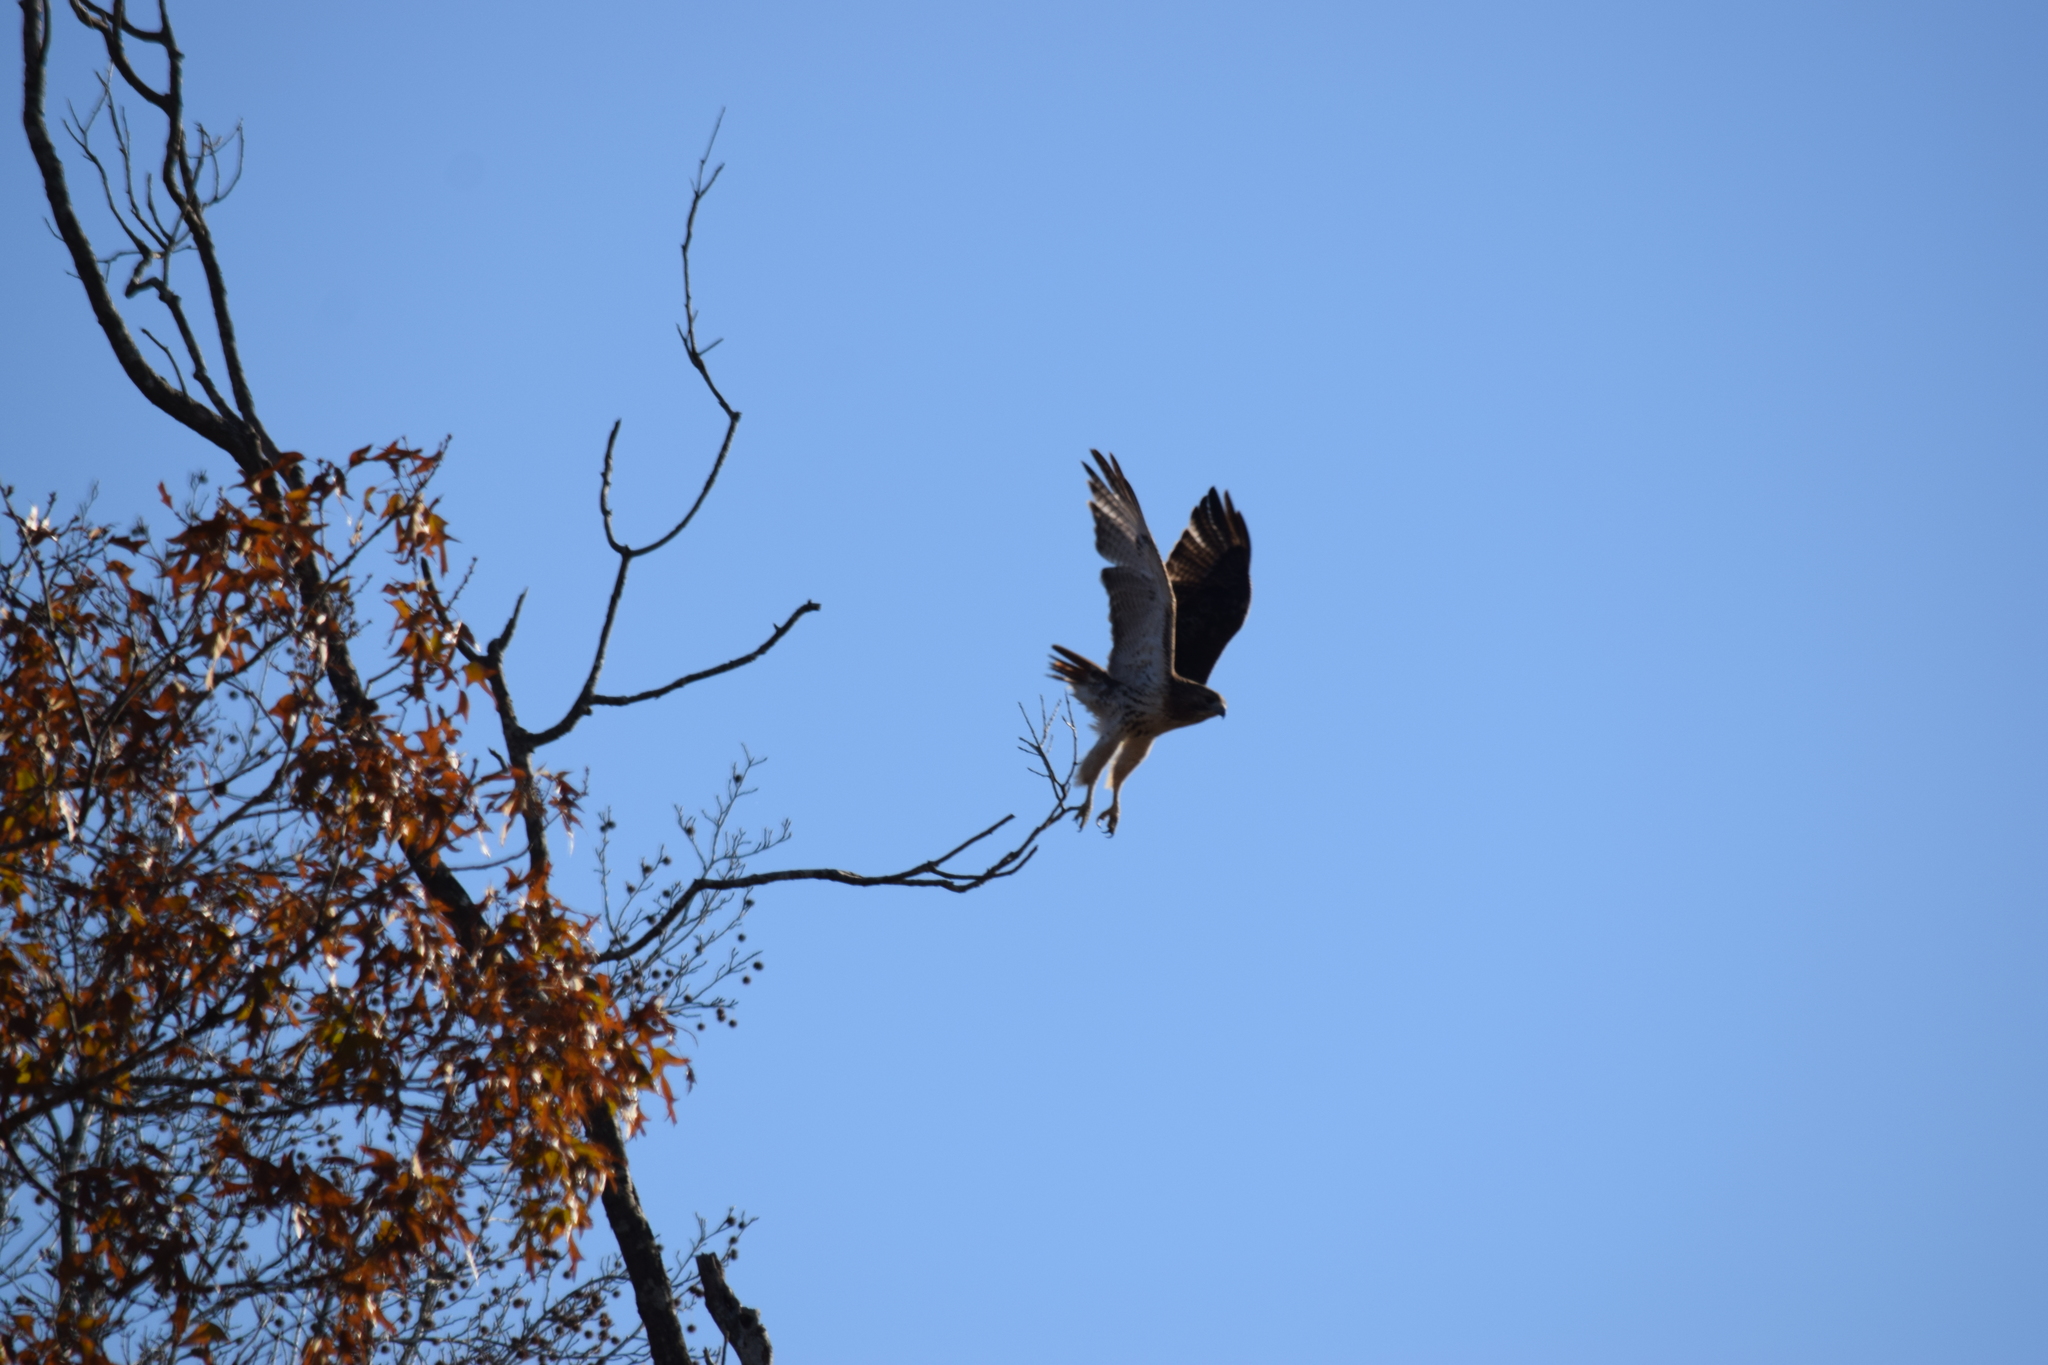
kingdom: Animalia
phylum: Chordata
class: Aves
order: Accipitriformes
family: Accipitridae
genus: Buteo
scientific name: Buteo jamaicensis
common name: Red-tailed hawk
